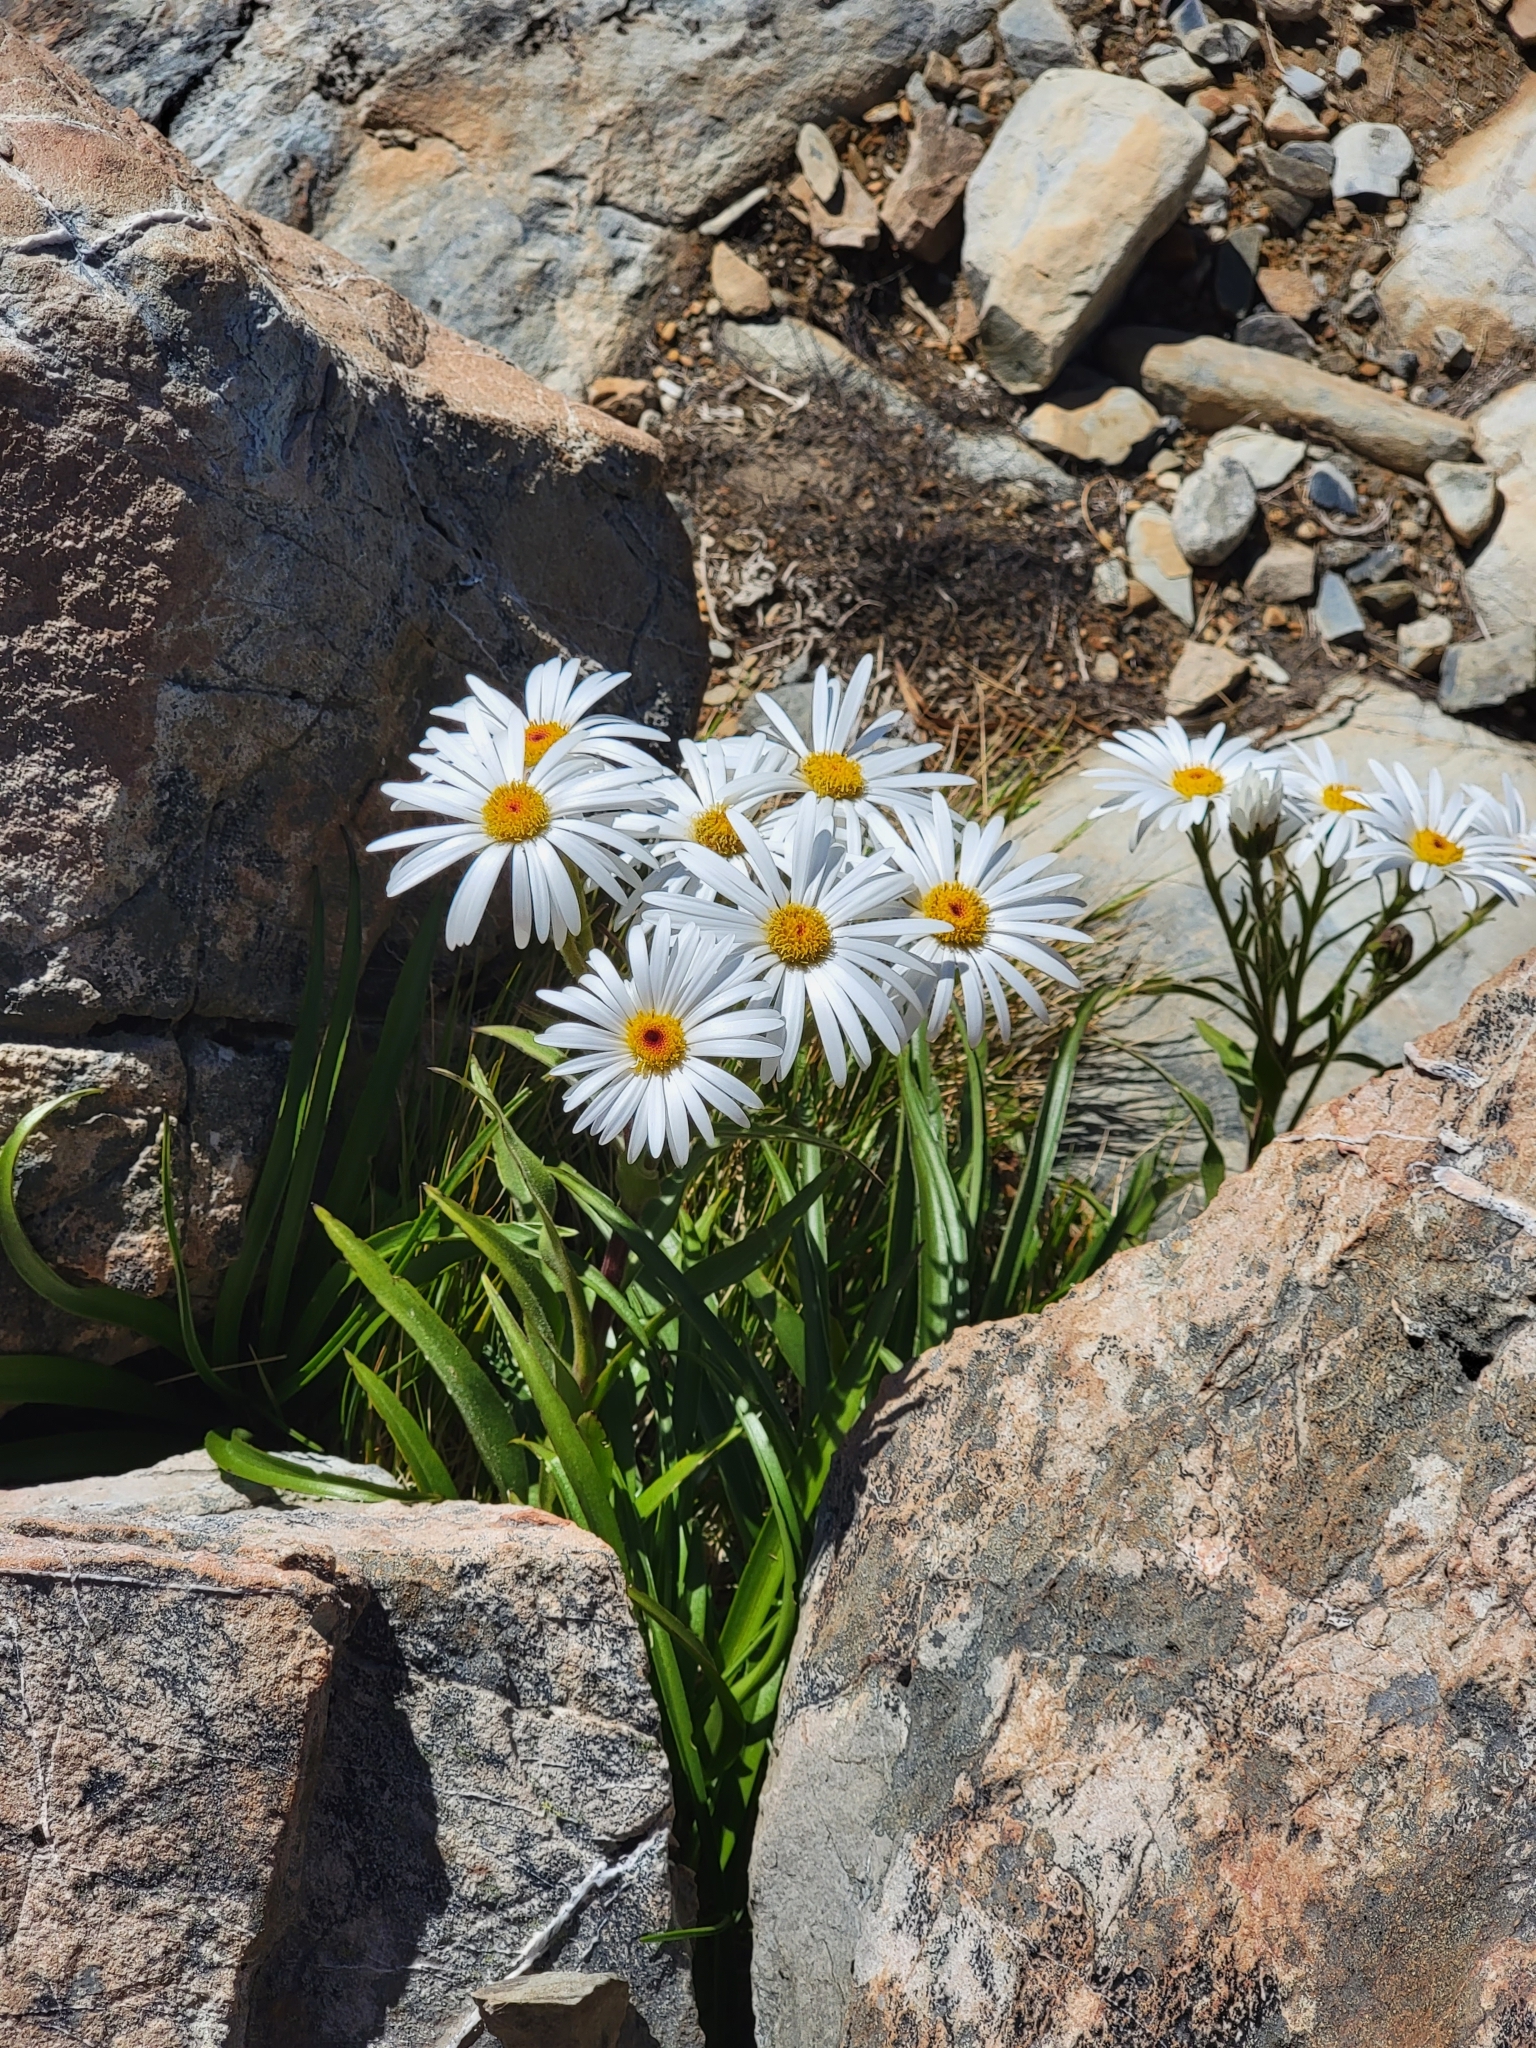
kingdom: Plantae
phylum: Tracheophyta
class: Magnoliopsida
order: Asterales
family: Asteraceae
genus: Dolichoglottis
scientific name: Dolichoglottis scorzoneroides
